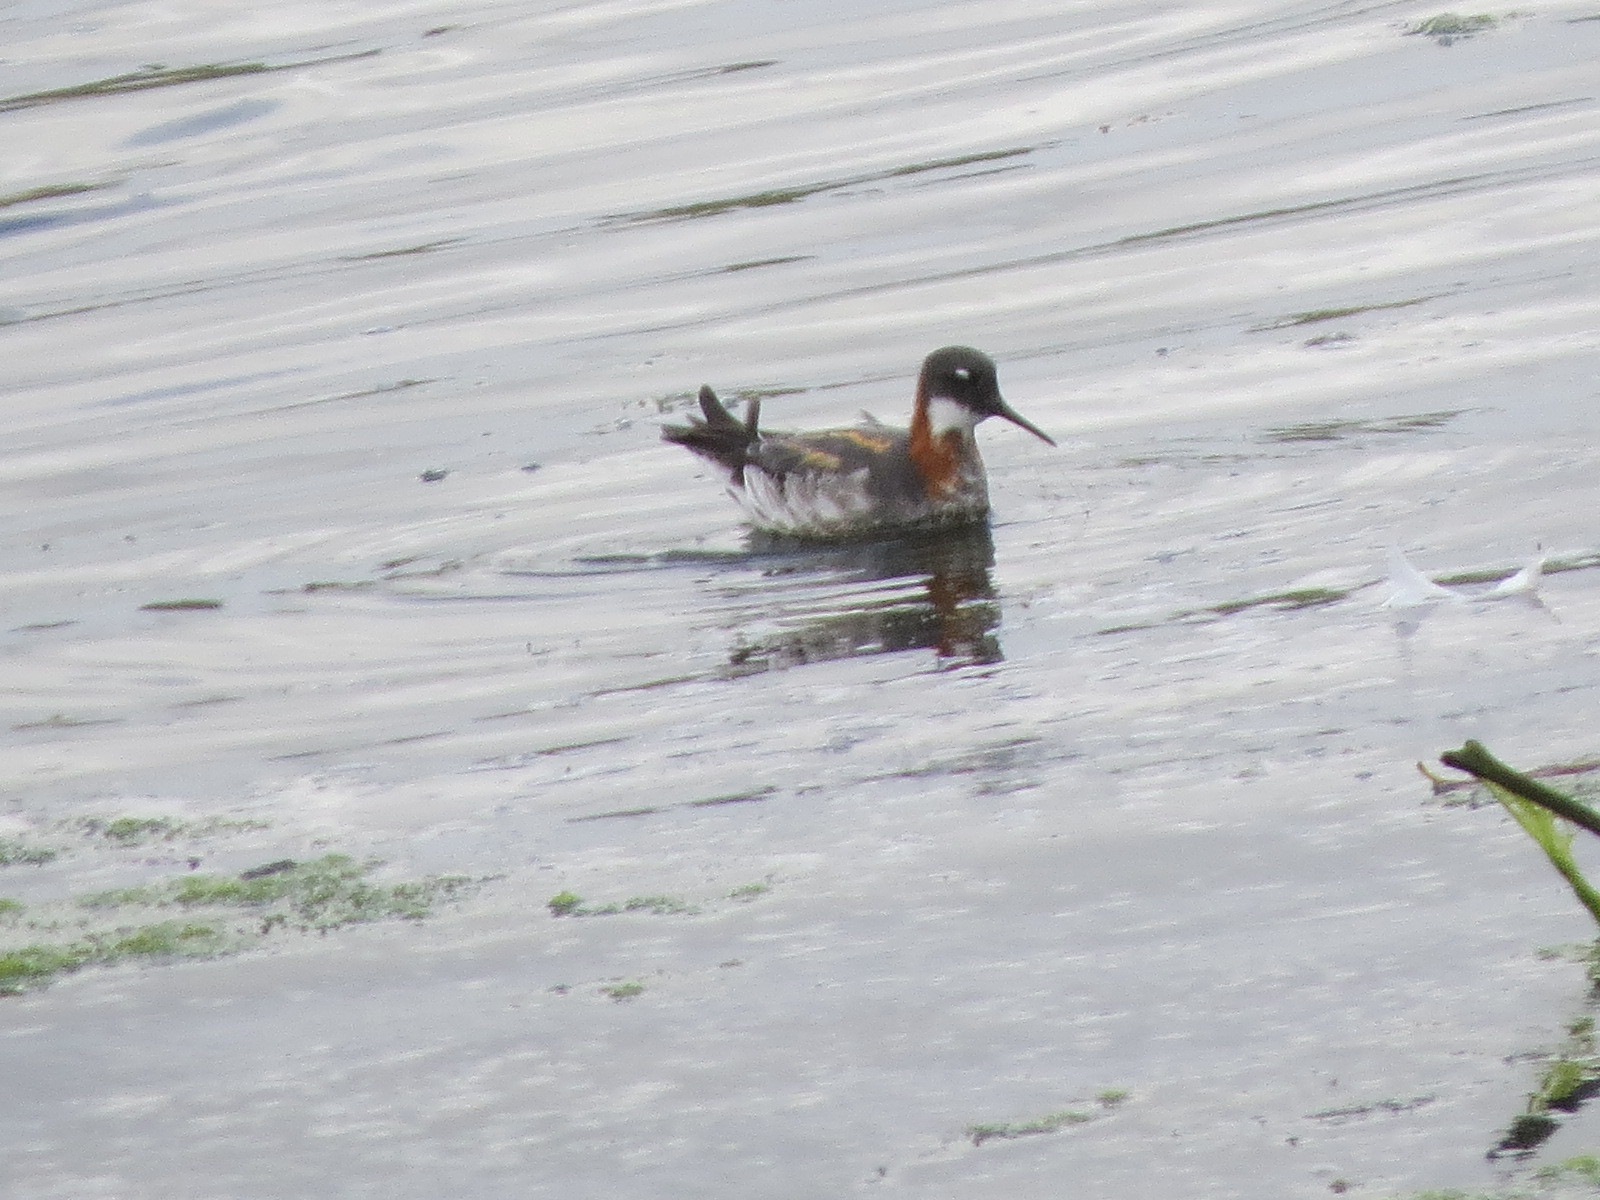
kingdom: Animalia
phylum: Chordata
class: Aves
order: Charadriiformes
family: Scolopacidae
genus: Phalaropus
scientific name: Phalaropus lobatus
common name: Red-necked phalarope
